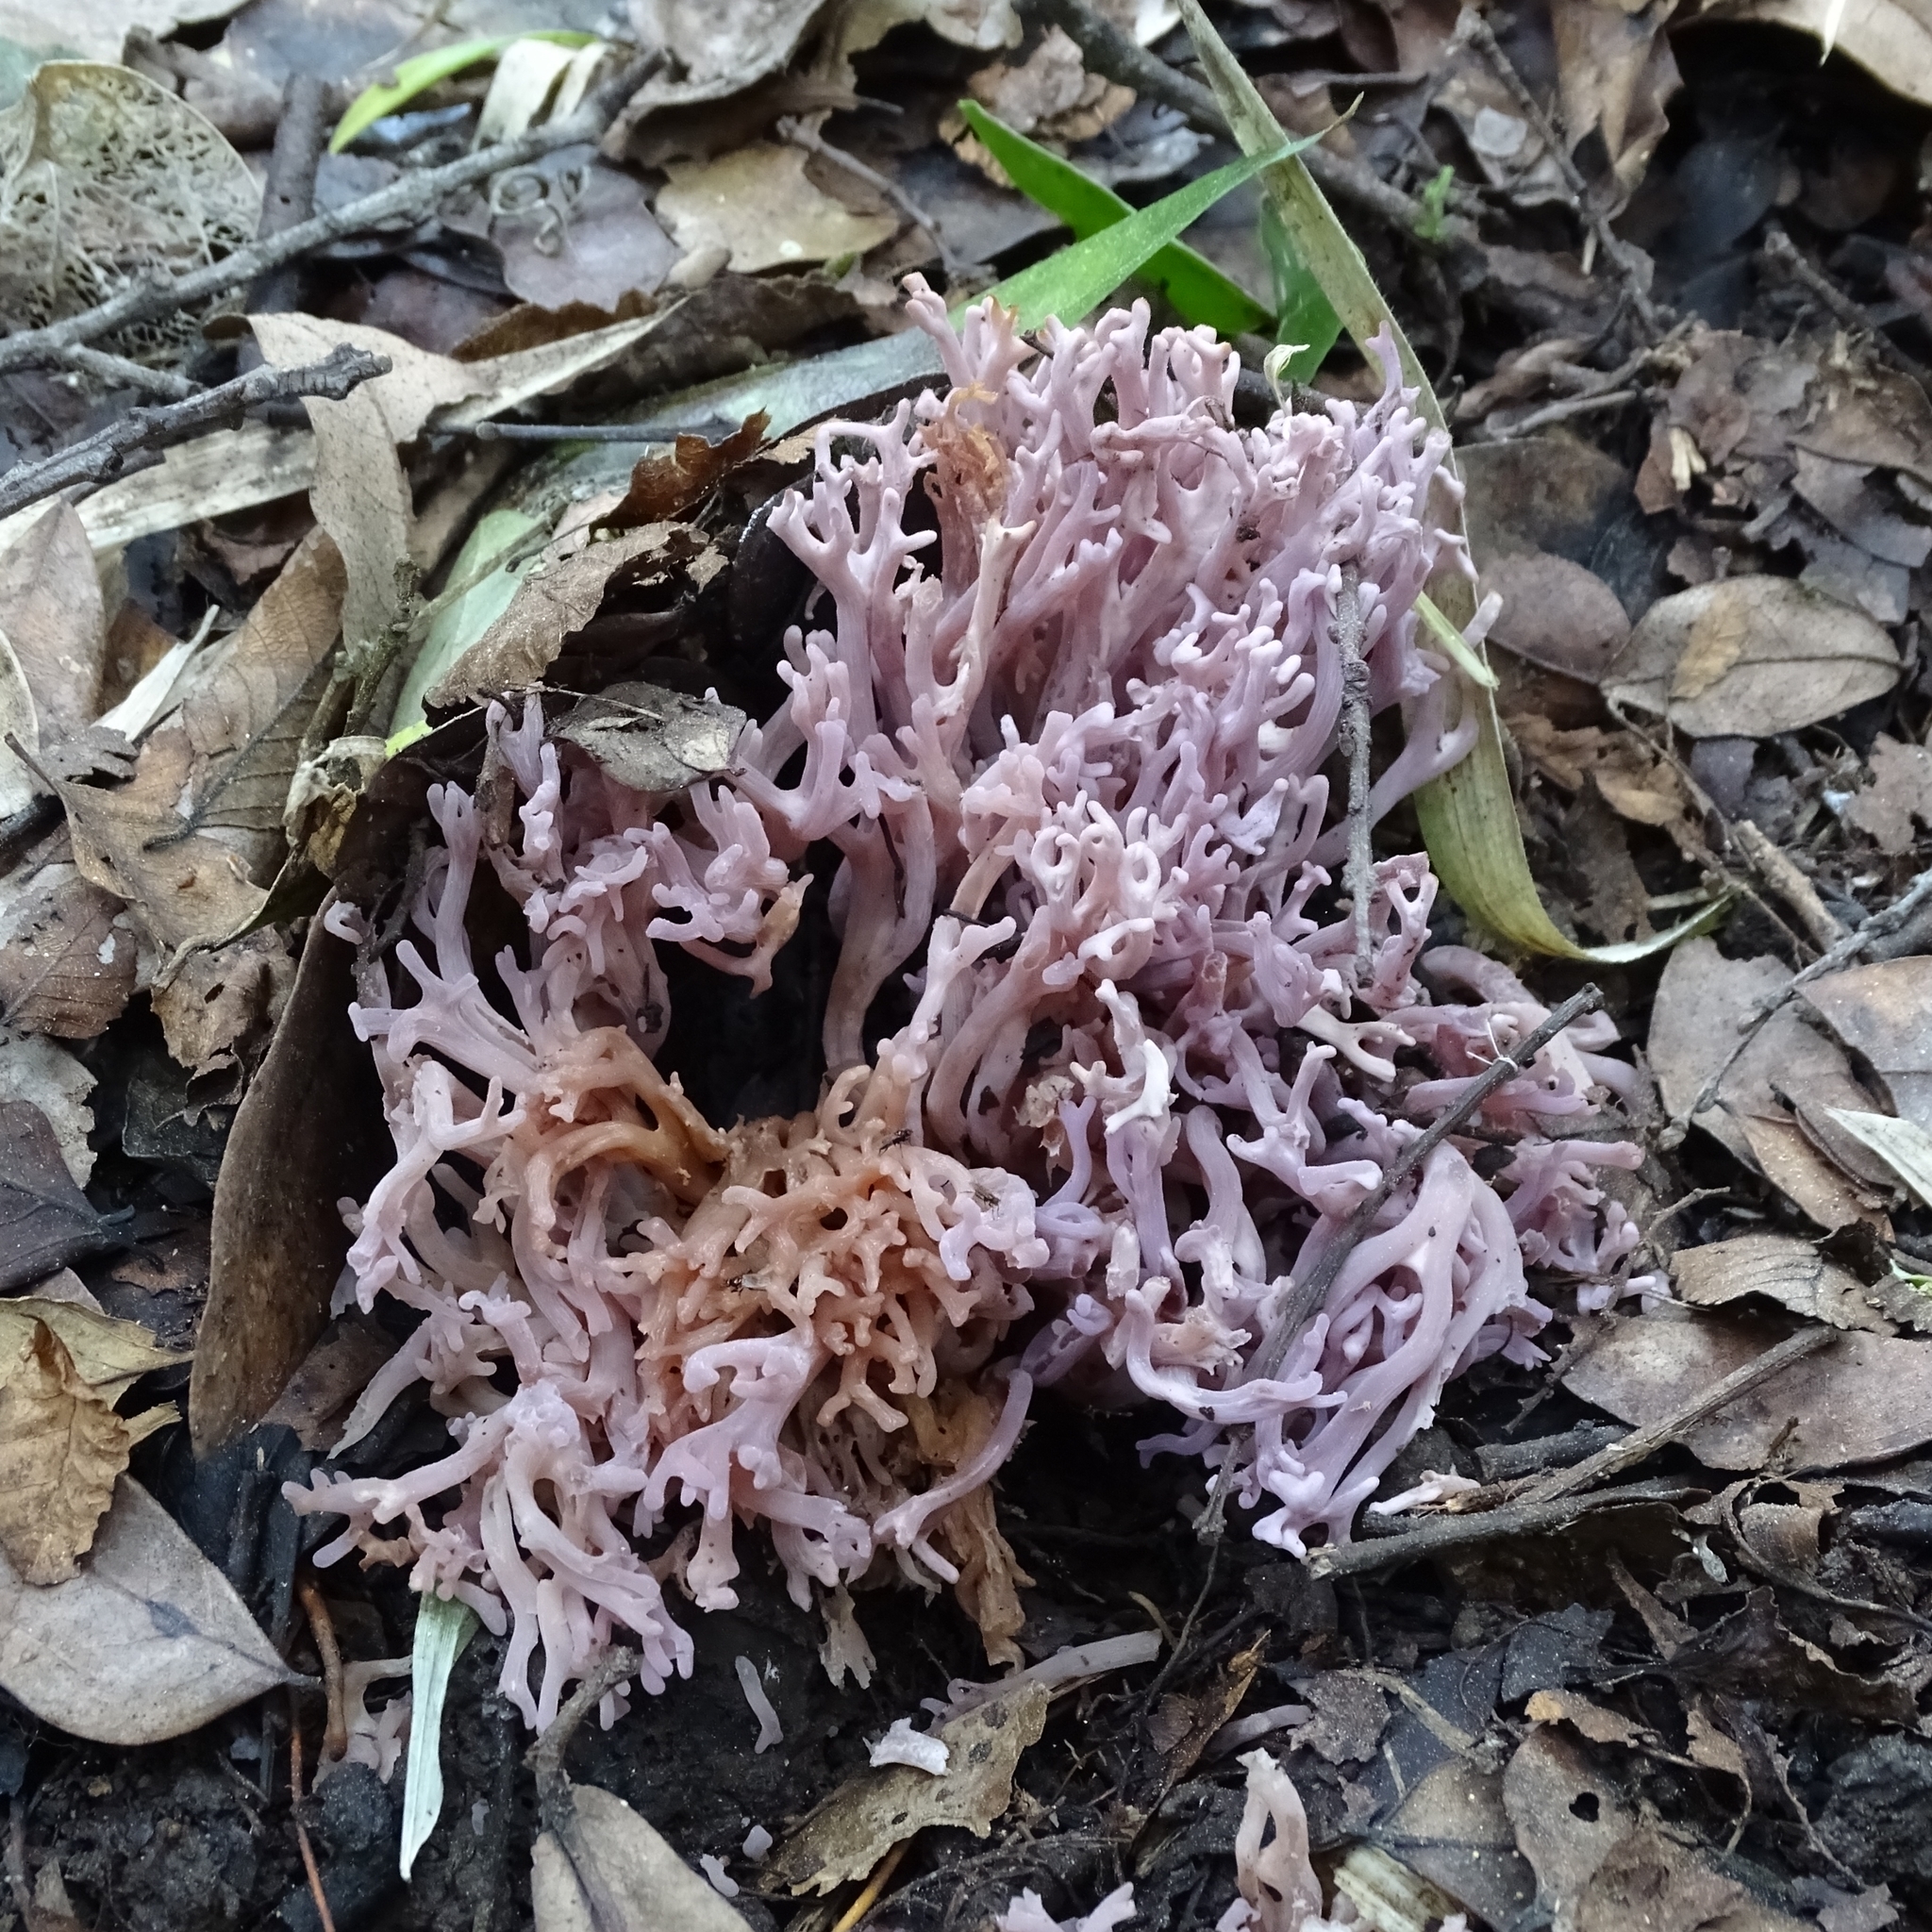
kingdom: Fungi
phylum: Basidiomycota
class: Agaricomycetes
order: Agaricales
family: Clavariaceae
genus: Clavaria
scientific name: Clavaria zollingeri
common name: Violet coral
